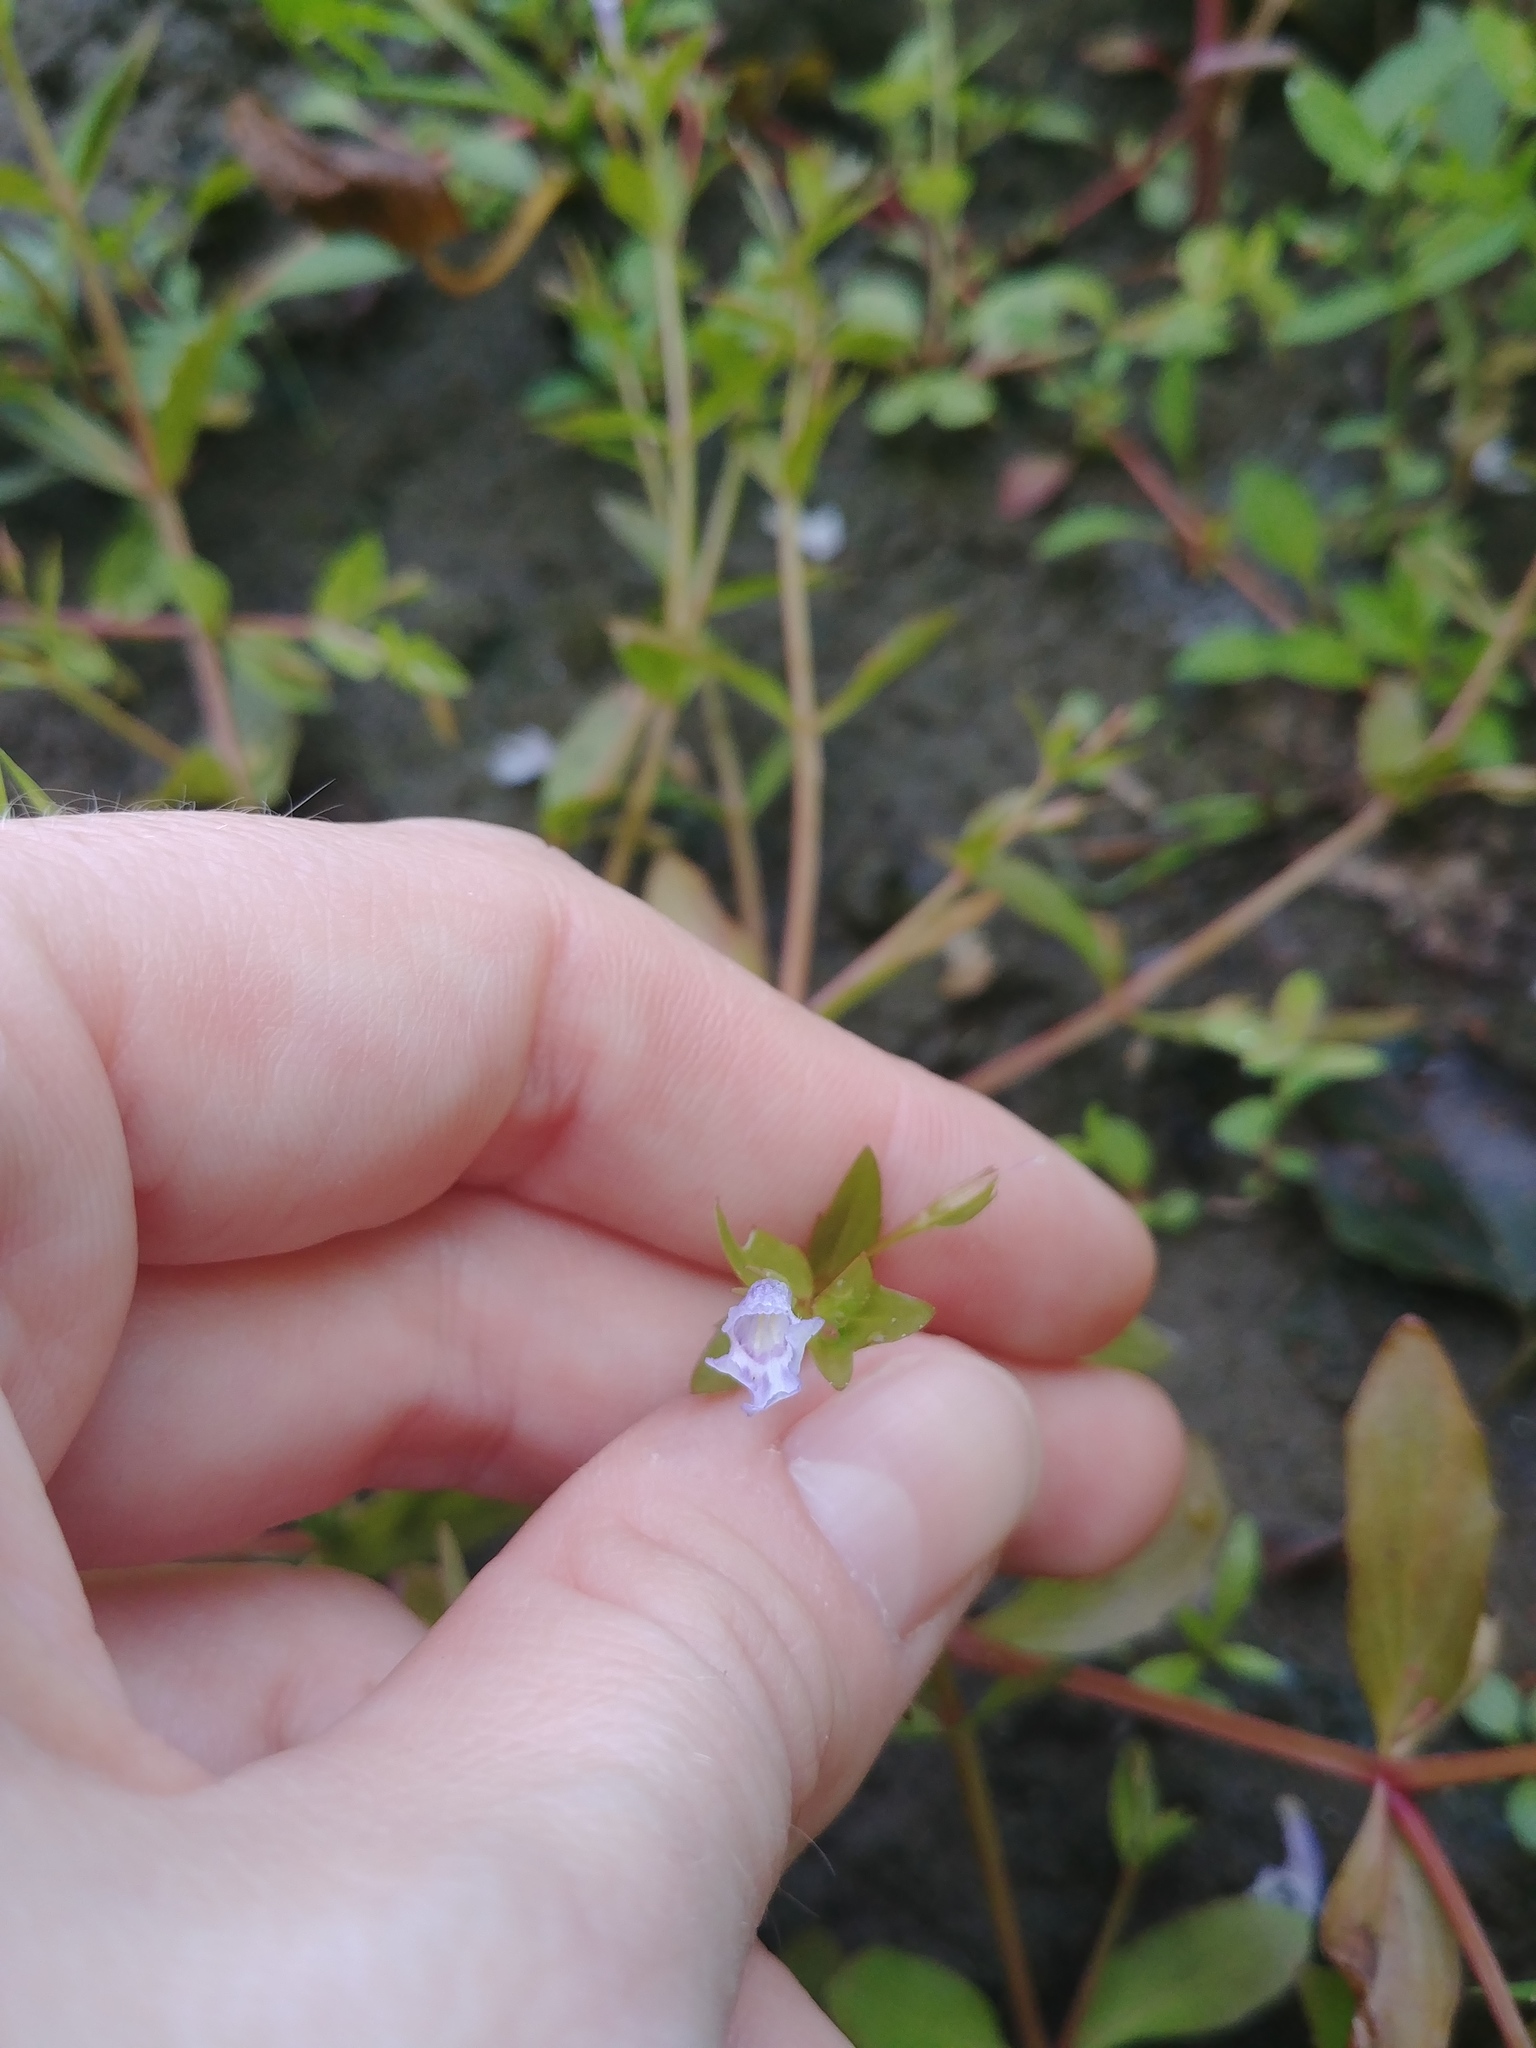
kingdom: Plantae
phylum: Tracheophyta
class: Magnoliopsida
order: Lamiales
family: Linderniaceae
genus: Lindernia
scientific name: Lindernia dubia
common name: Annual false pimpernel
